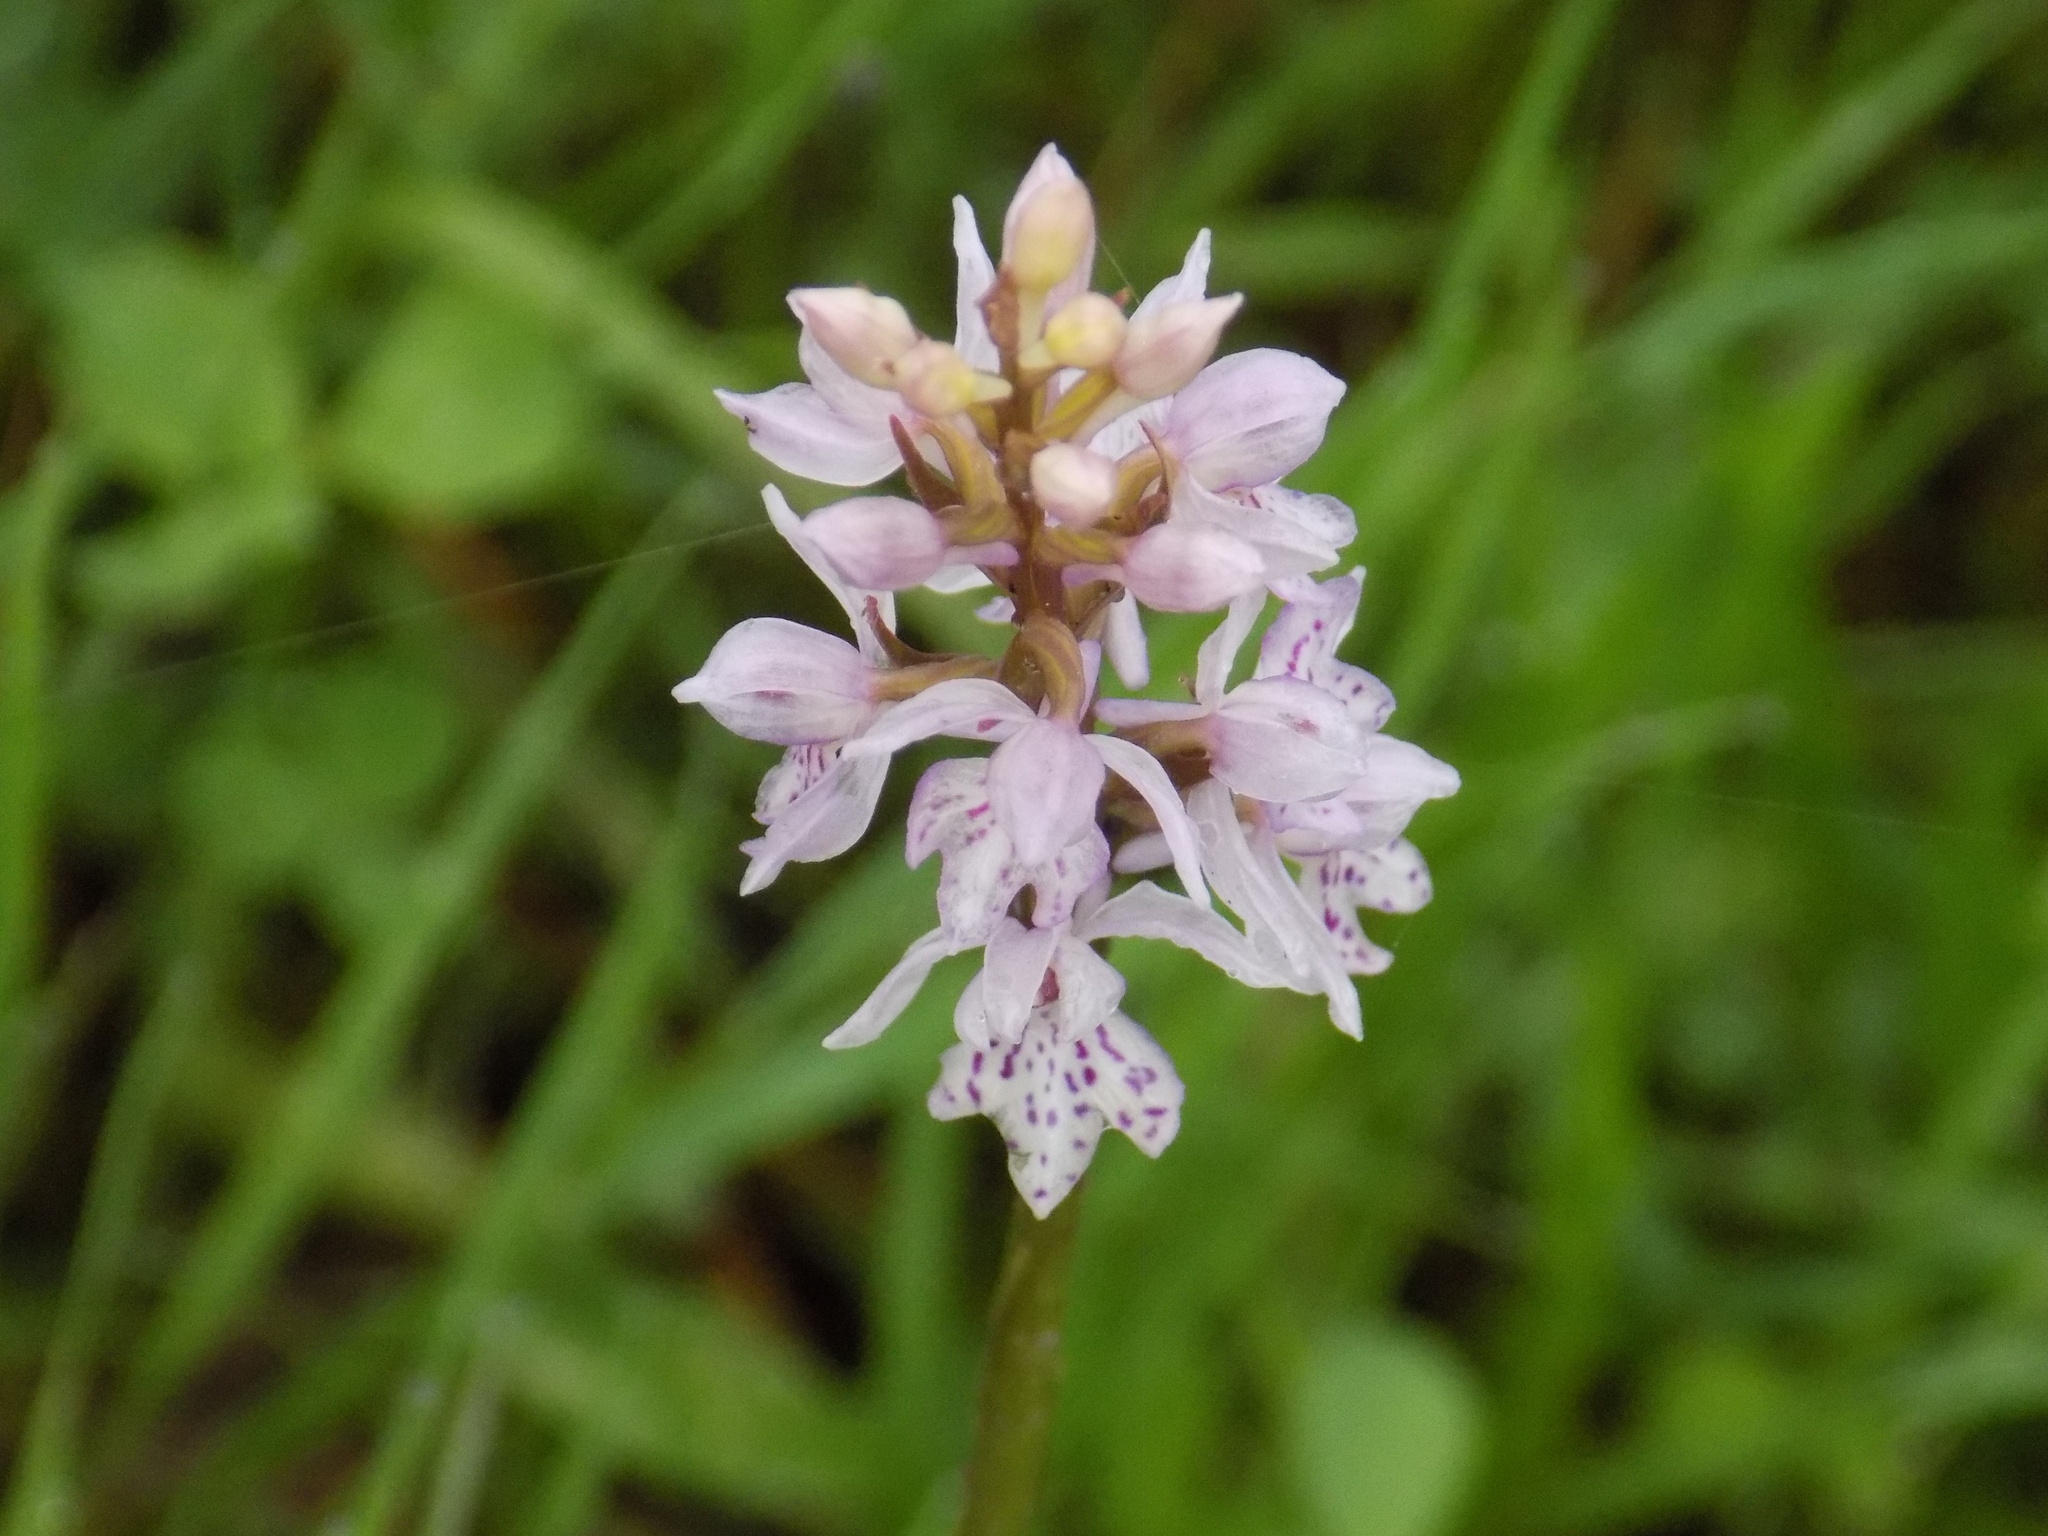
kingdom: Plantae
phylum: Tracheophyta
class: Liliopsida
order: Asparagales
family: Orchidaceae
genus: Dactylorhiza
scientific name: Dactylorhiza maculata
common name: Heath spotted-orchid
